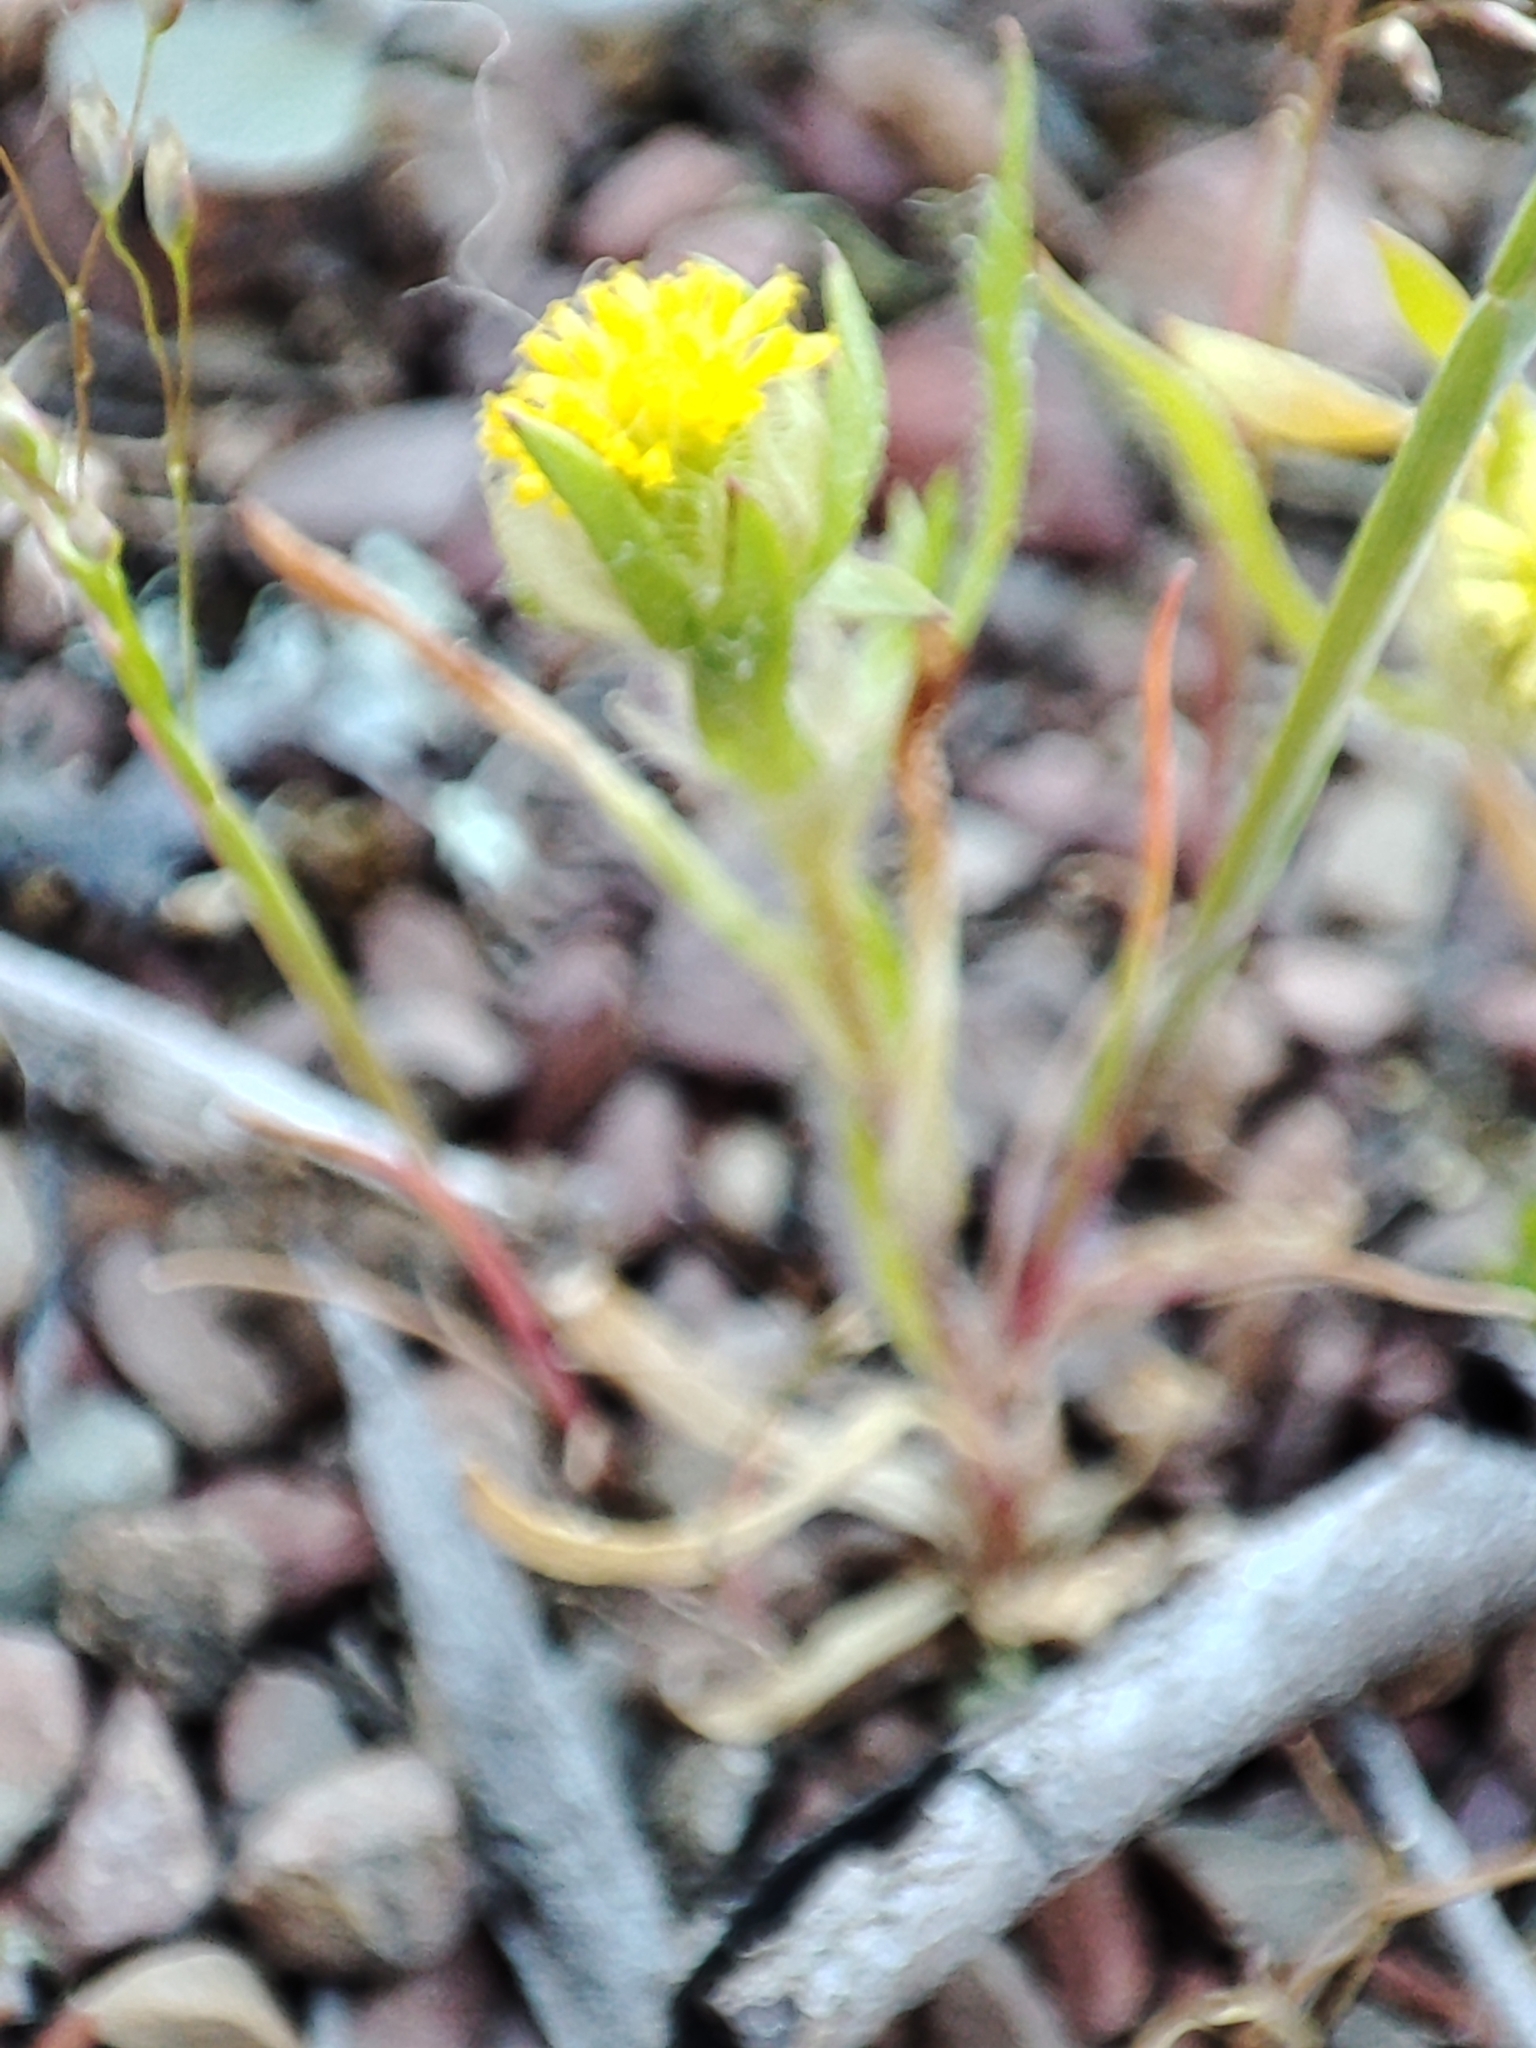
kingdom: Plantae
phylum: Tracheophyta
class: Magnoliopsida
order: Asterales
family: Asteraceae
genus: Triptilodiscus
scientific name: Triptilodiscus pygmaeus
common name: Common sunray
